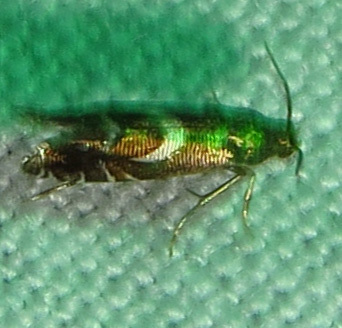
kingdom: Animalia
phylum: Arthropoda
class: Insecta
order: Lepidoptera
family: Glyphipterigidae
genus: Glyphipterix
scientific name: Glyphipterix Diploschizia impigritella
